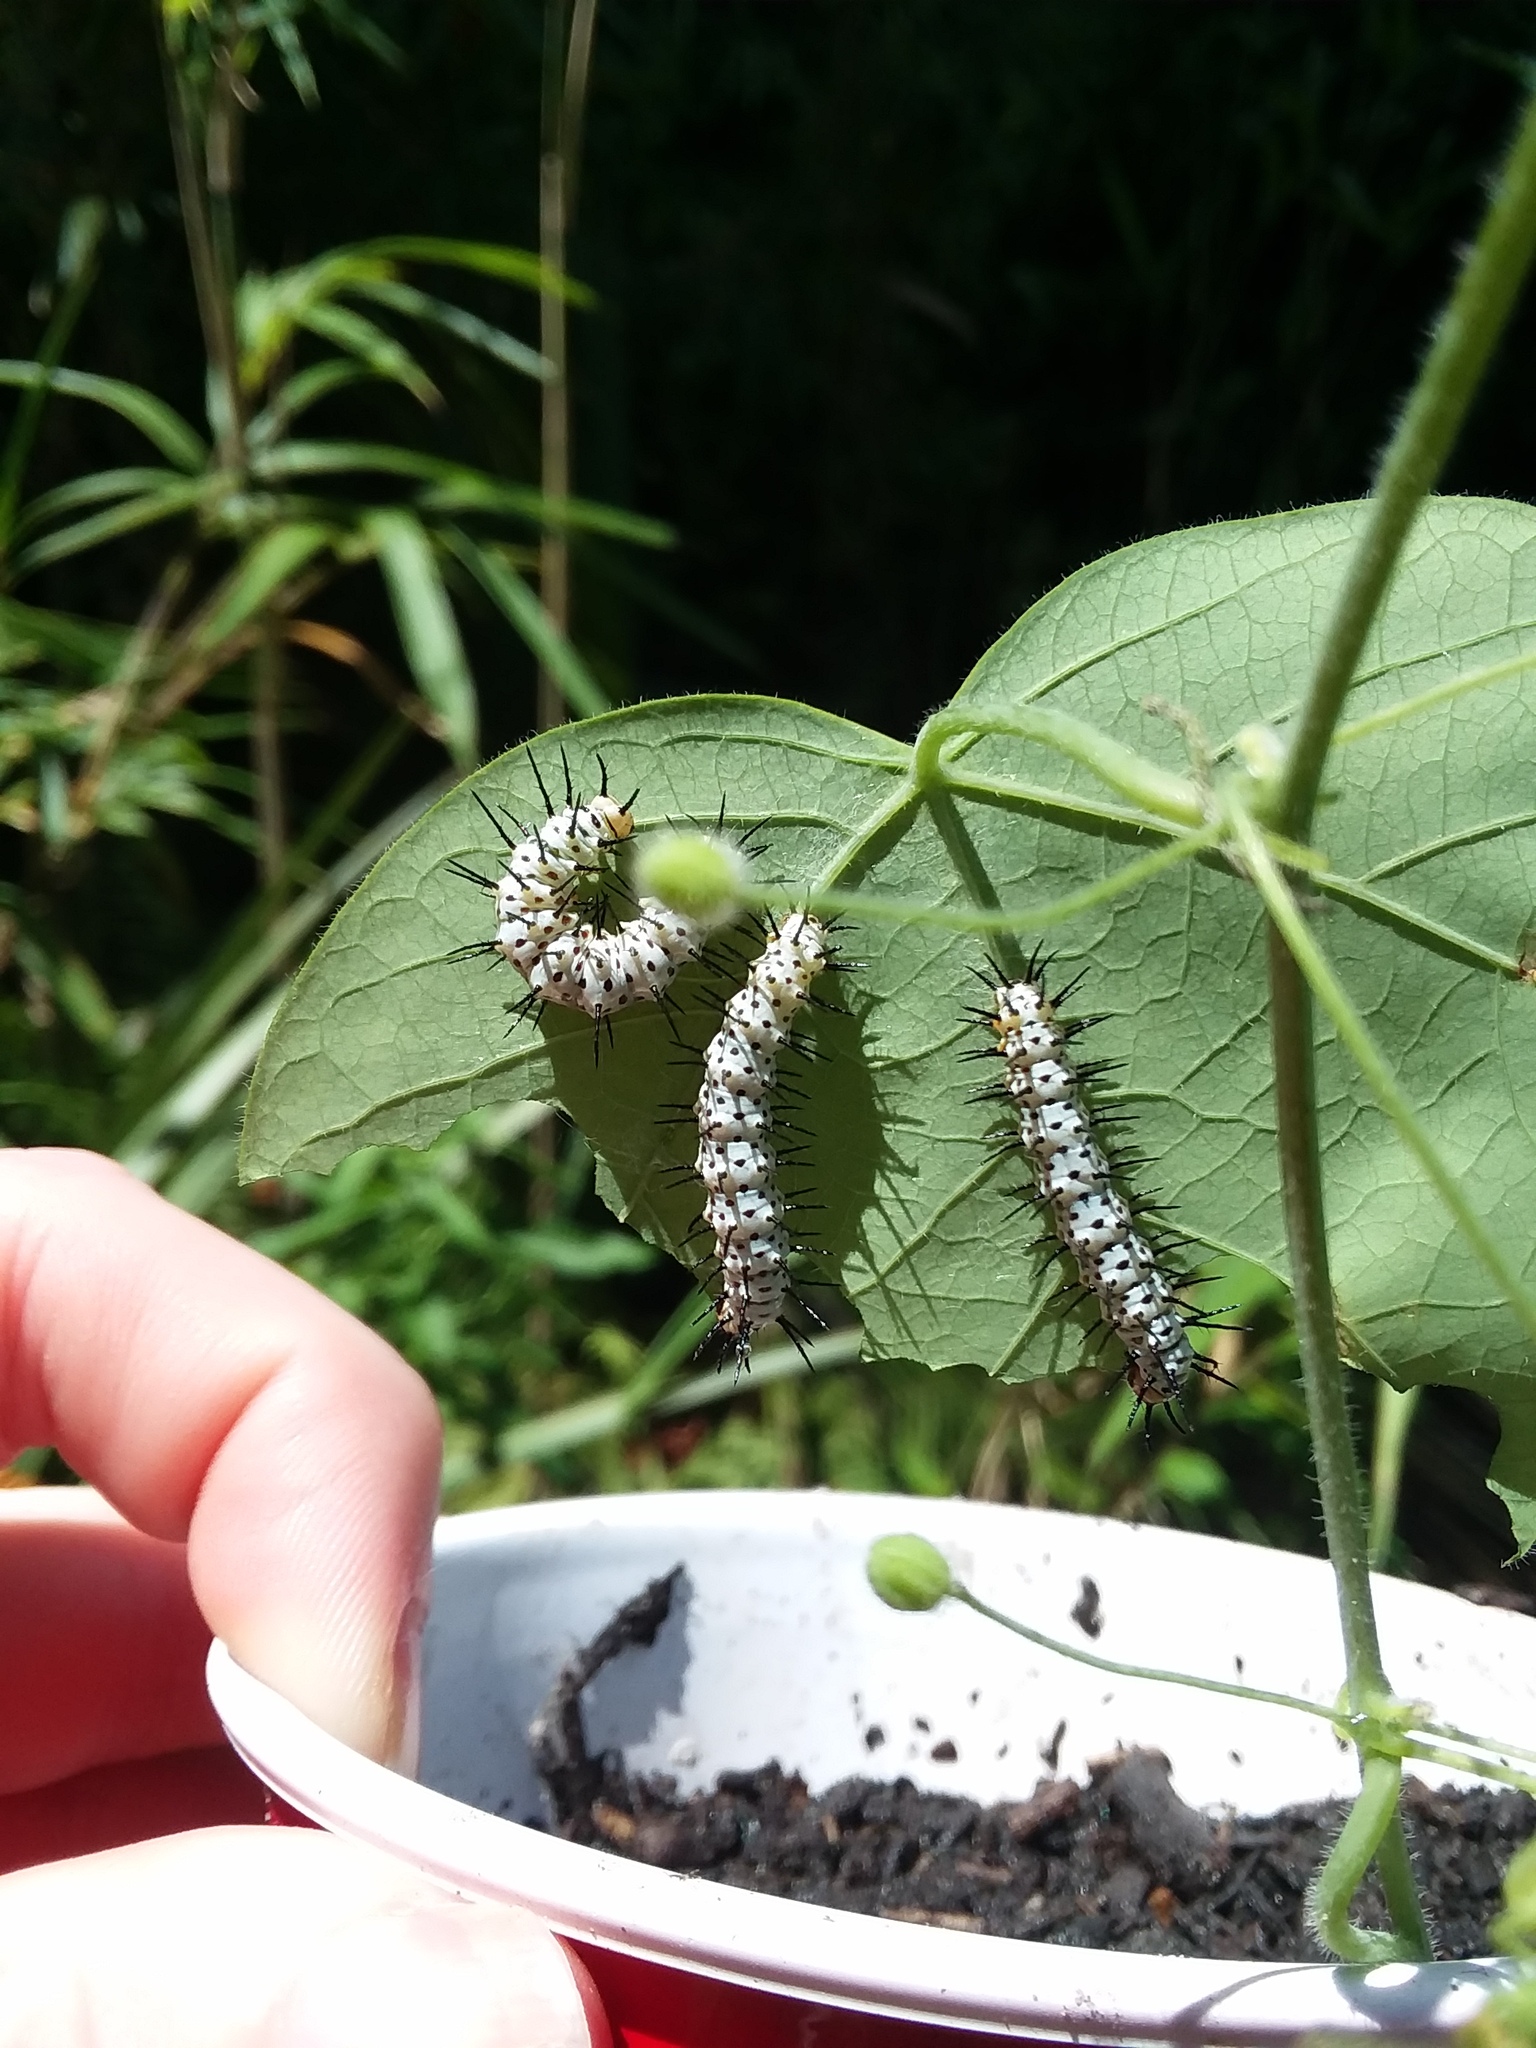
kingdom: Animalia
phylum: Arthropoda
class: Insecta
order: Lepidoptera
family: Nymphalidae
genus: Heliconius
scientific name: Heliconius charithonia
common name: Zebra long wing
